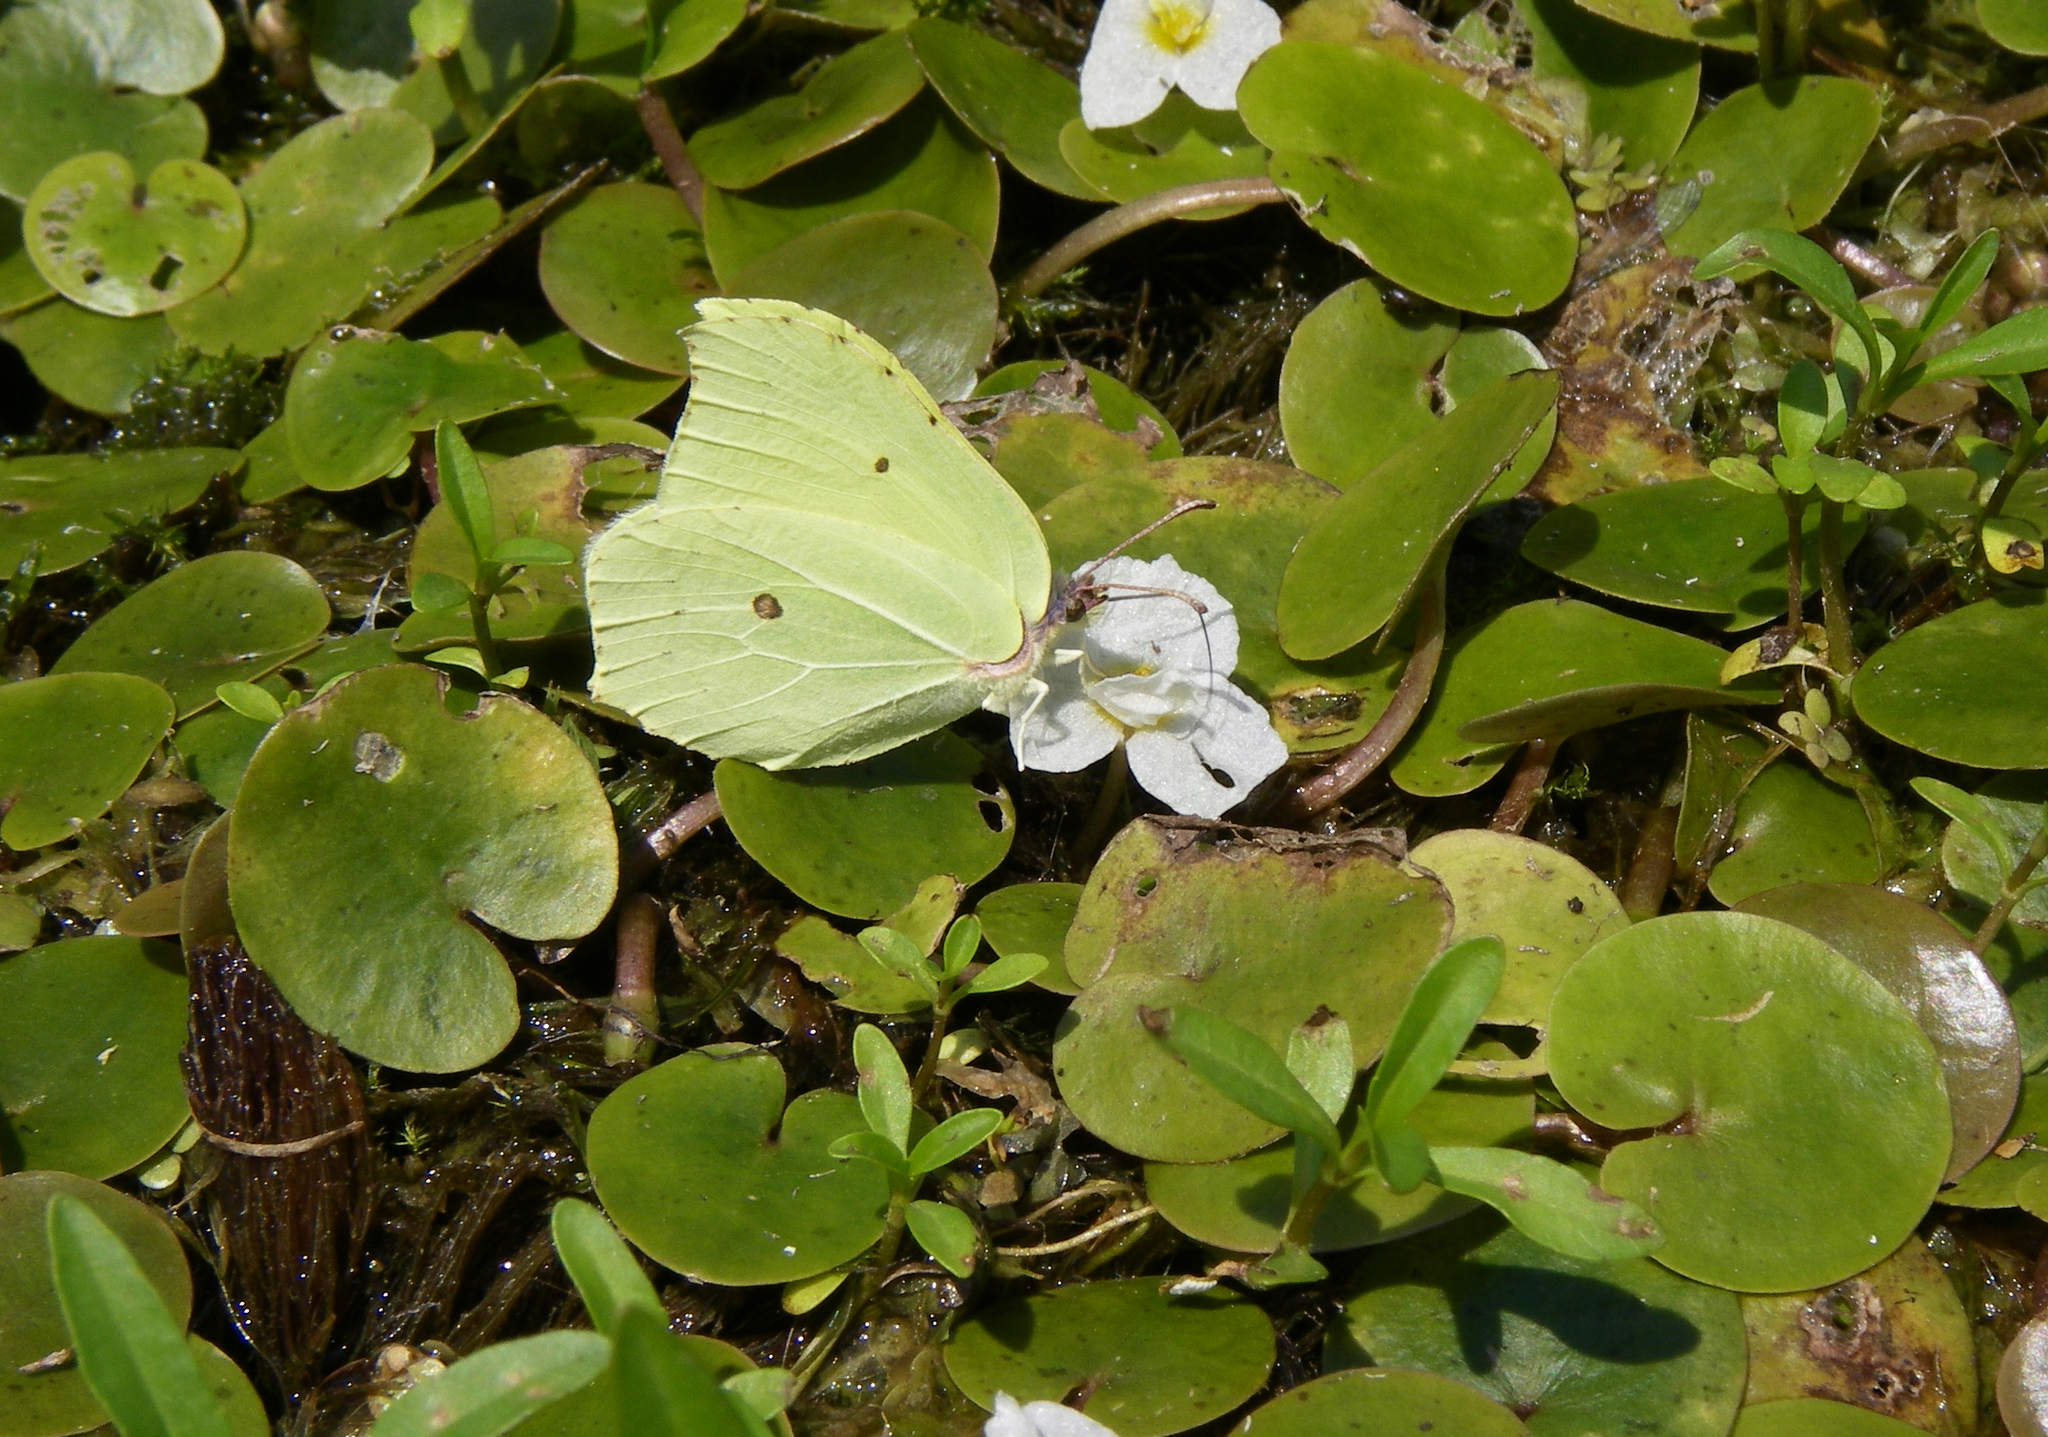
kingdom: Animalia
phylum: Arthropoda
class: Insecta
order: Lepidoptera
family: Pieridae
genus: Gonepteryx
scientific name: Gonepteryx rhamni
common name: Brimstone
